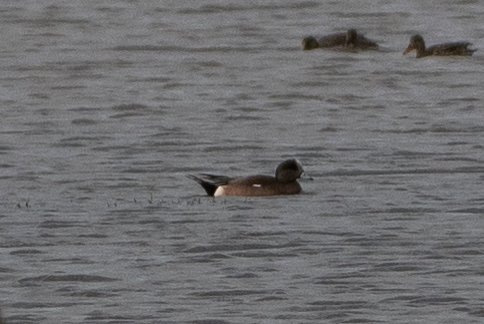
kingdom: Animalia
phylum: Chordata
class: Aves
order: Anseriformes
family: Anatidae
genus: Mareca
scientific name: Mareca americana
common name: American wigeon
